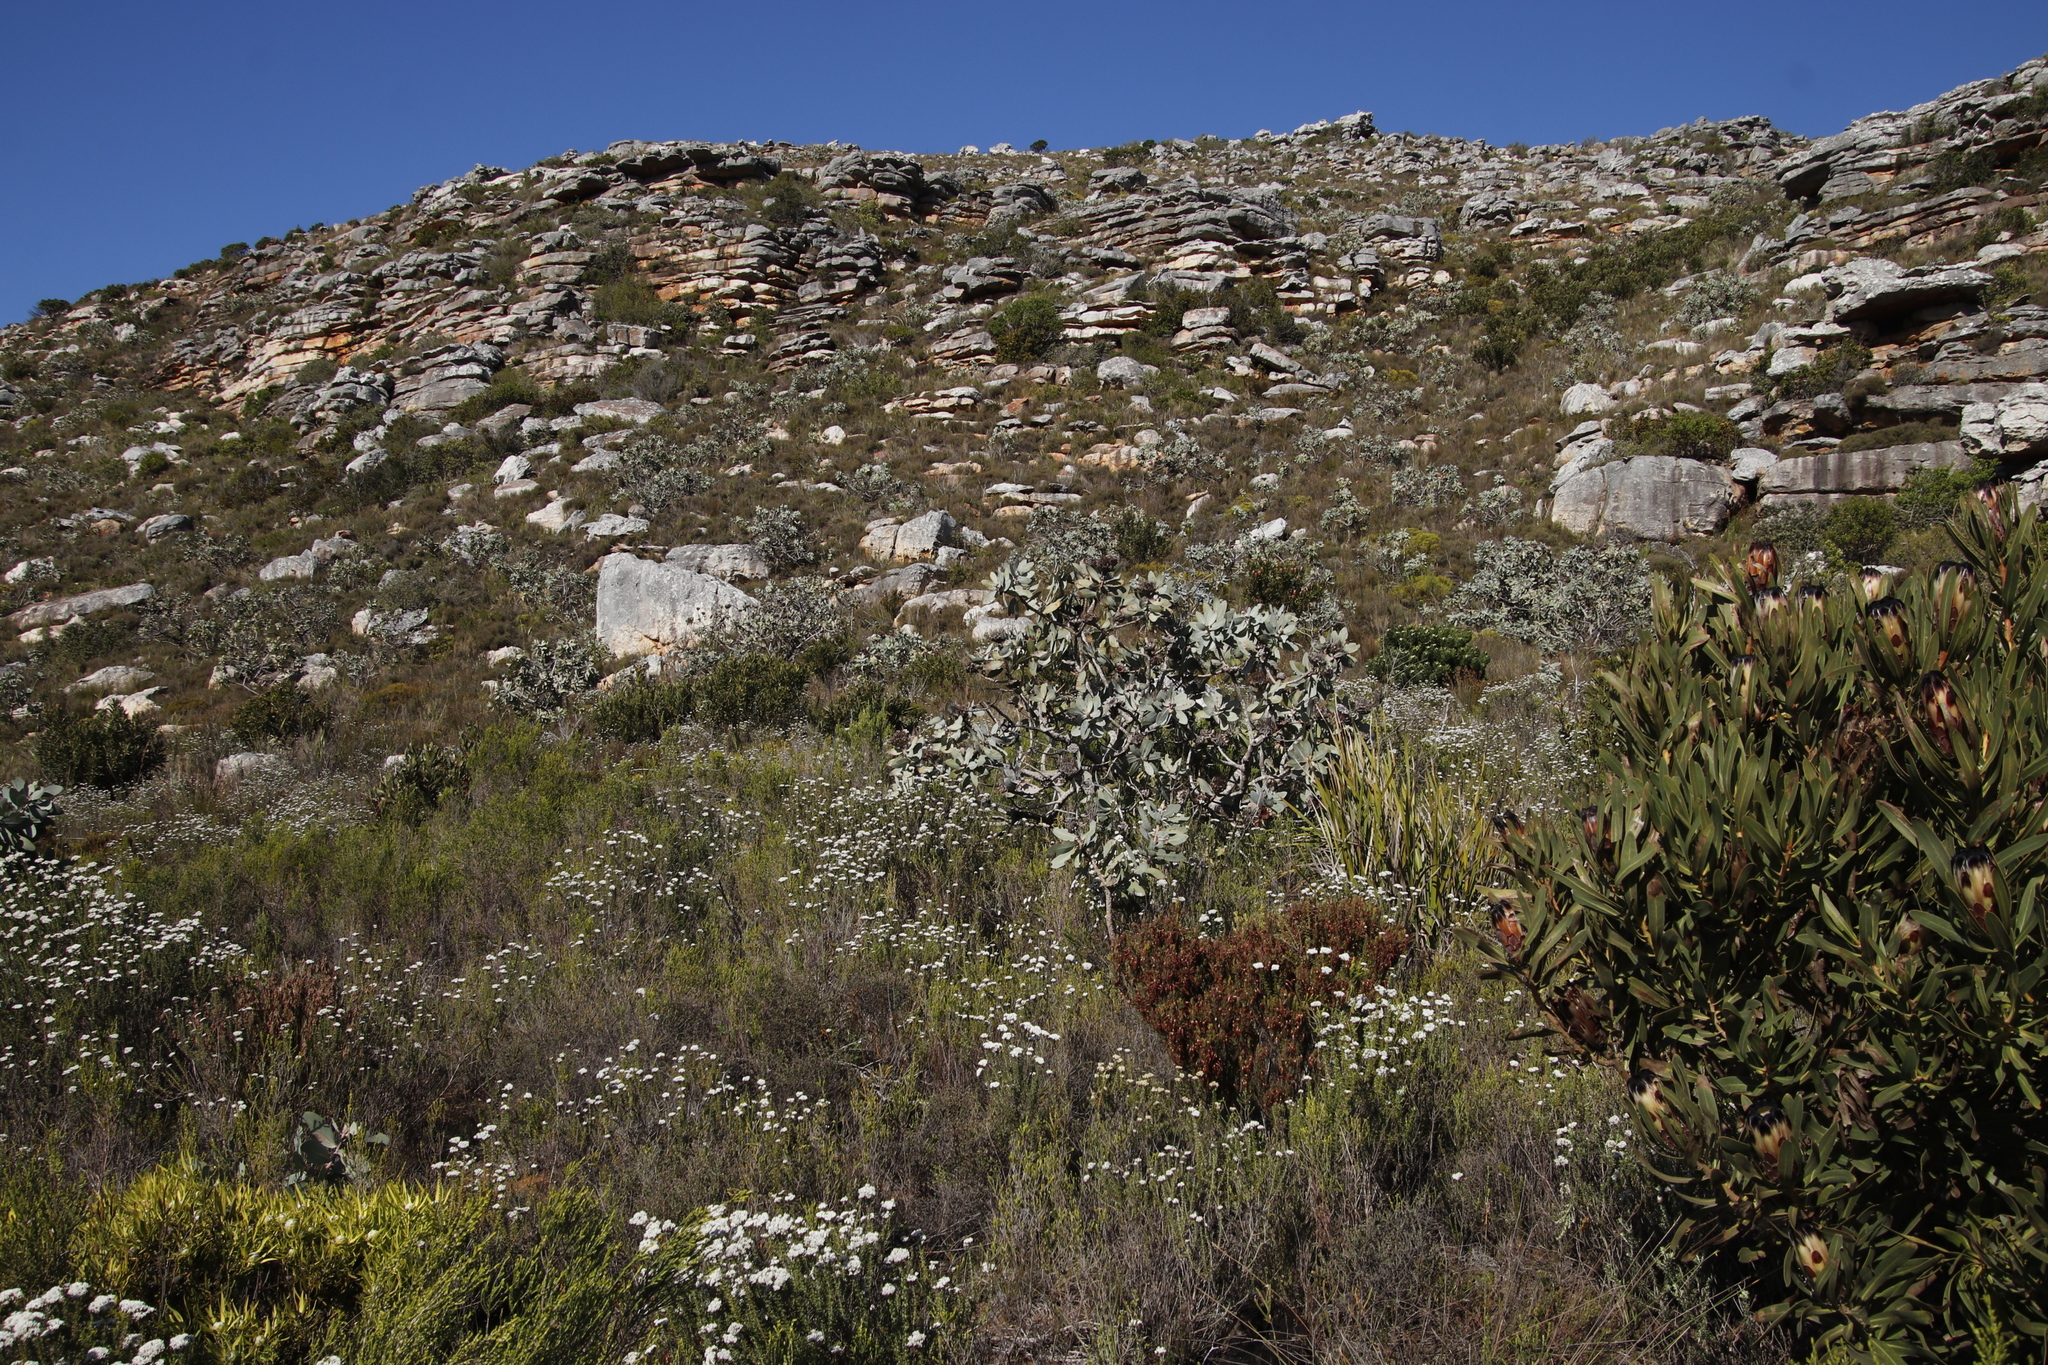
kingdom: Plantae
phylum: Tracheophyta
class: Magnoliopsida
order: Proteales
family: Proteaceae
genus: Protea
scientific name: Protea nitida
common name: Tree protea
